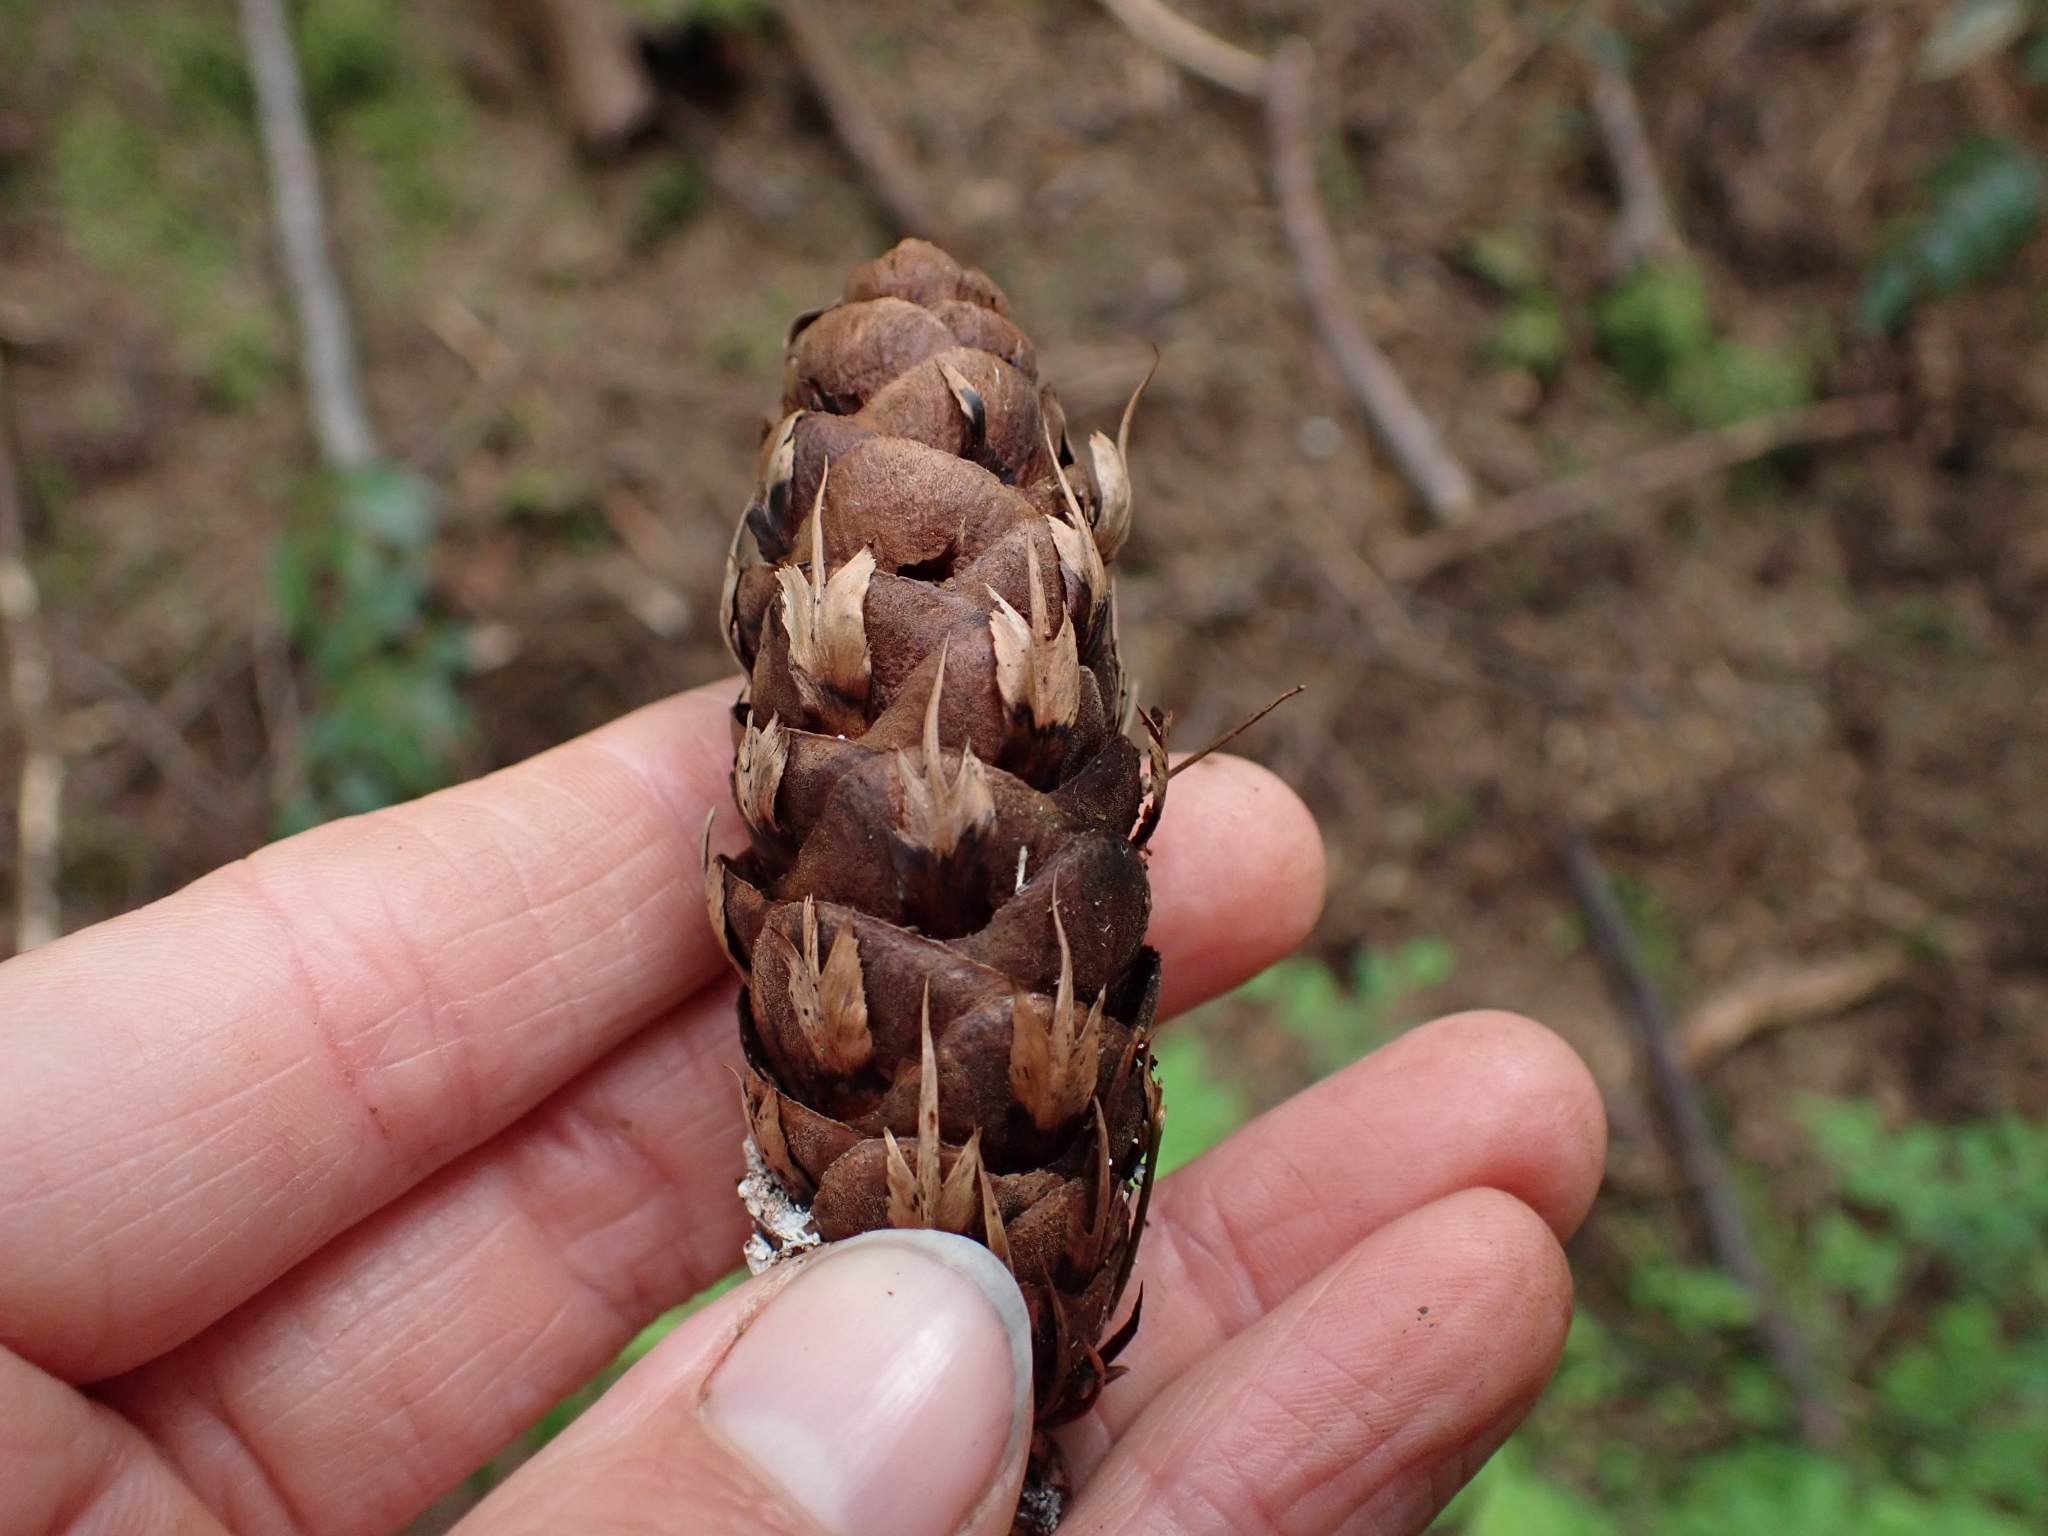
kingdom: Plantae
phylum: Tracheophyta
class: Pinopsida
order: Pinales
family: Pinaceae
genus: Pseudotsuga
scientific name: Pseudotsuga menziesii
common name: Douglas fir
